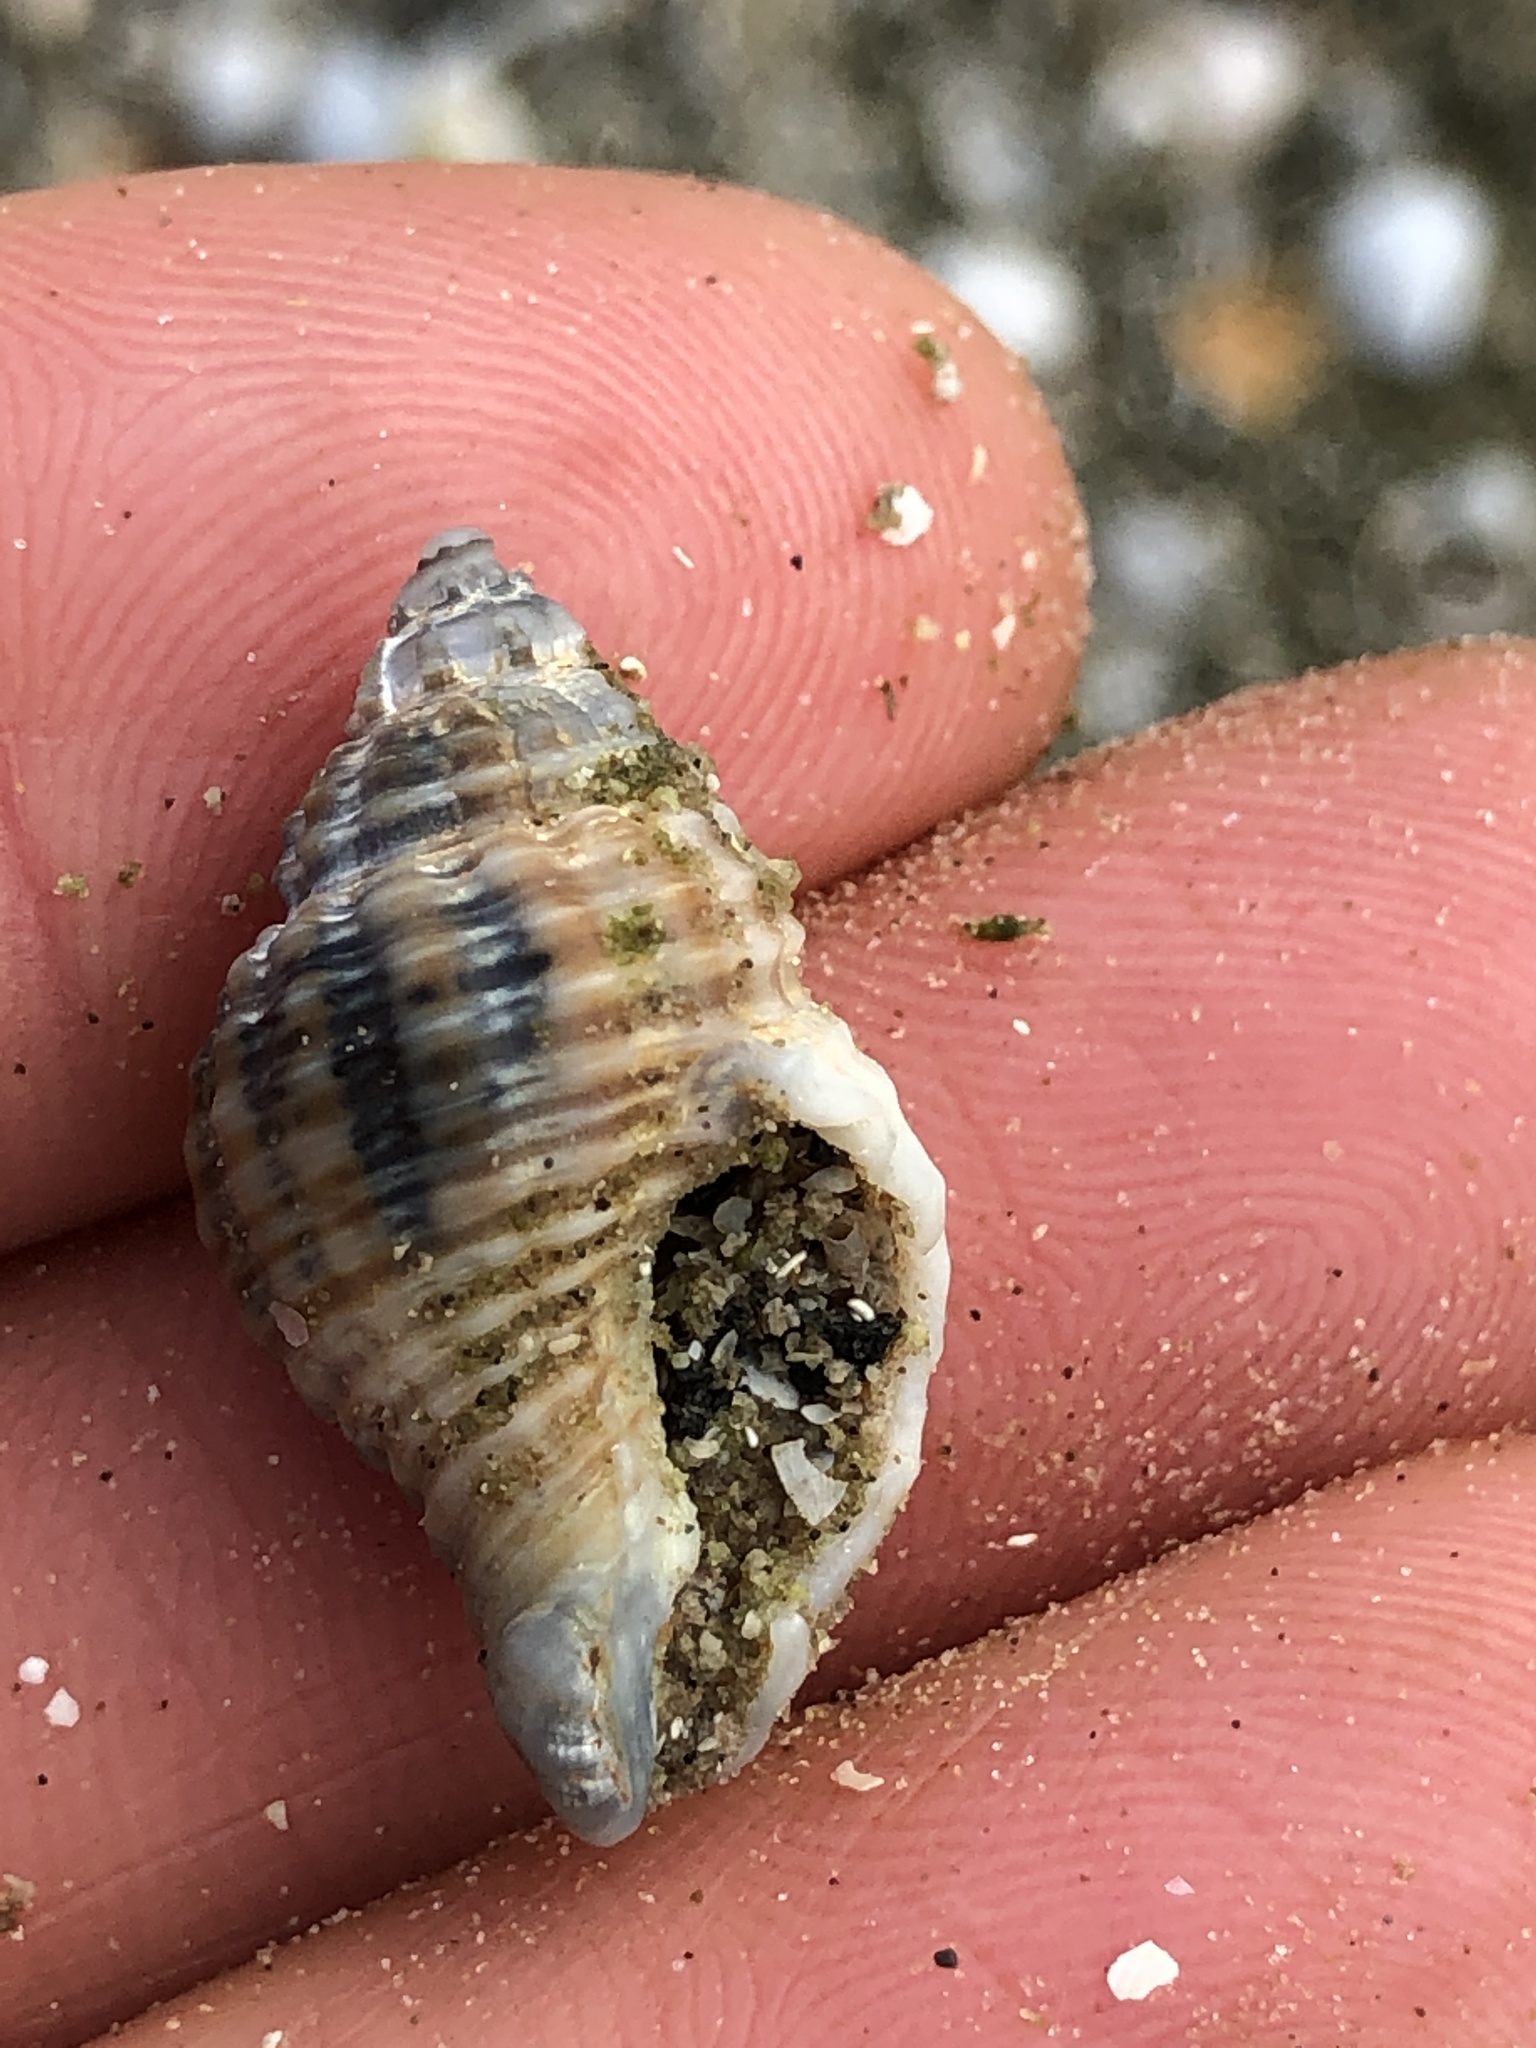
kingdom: Animalia
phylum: Mollusca
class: Gastropoda
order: Neogastropoda
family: Pisaniidae
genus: Solenosteira
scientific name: Solenosteira cancellaria
